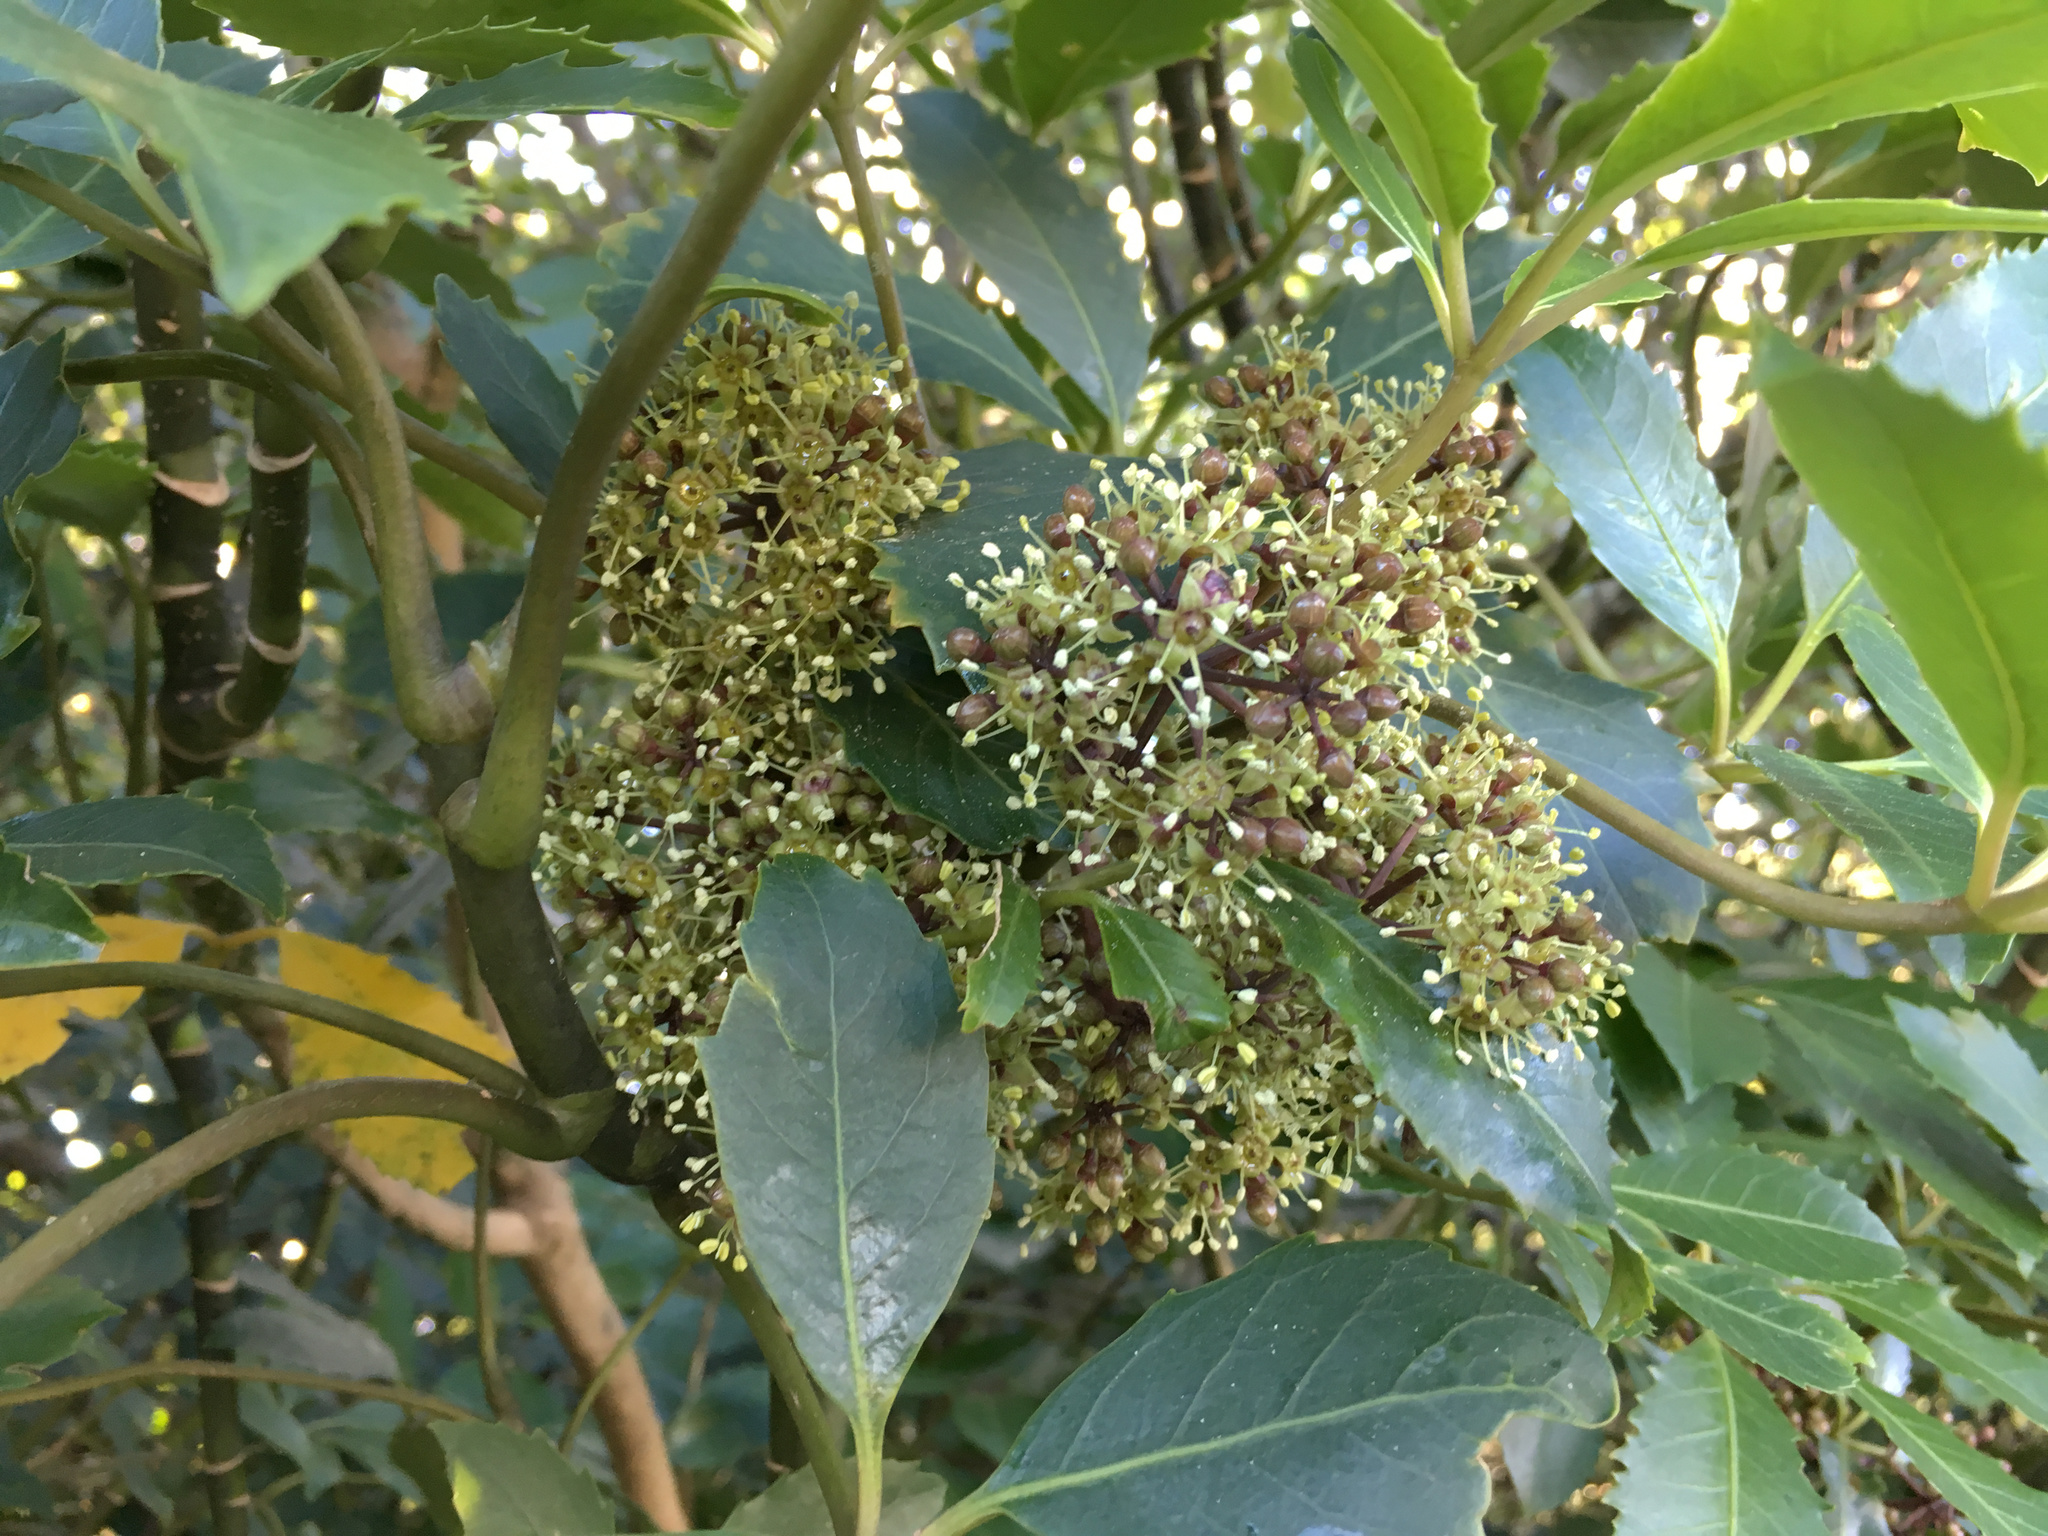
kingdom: Plantae
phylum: Tracheophyta
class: Magnoliopsida
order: Apiales
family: Araliaceae
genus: Neopanax
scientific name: Neopanax arboreus
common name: Five-fingers
